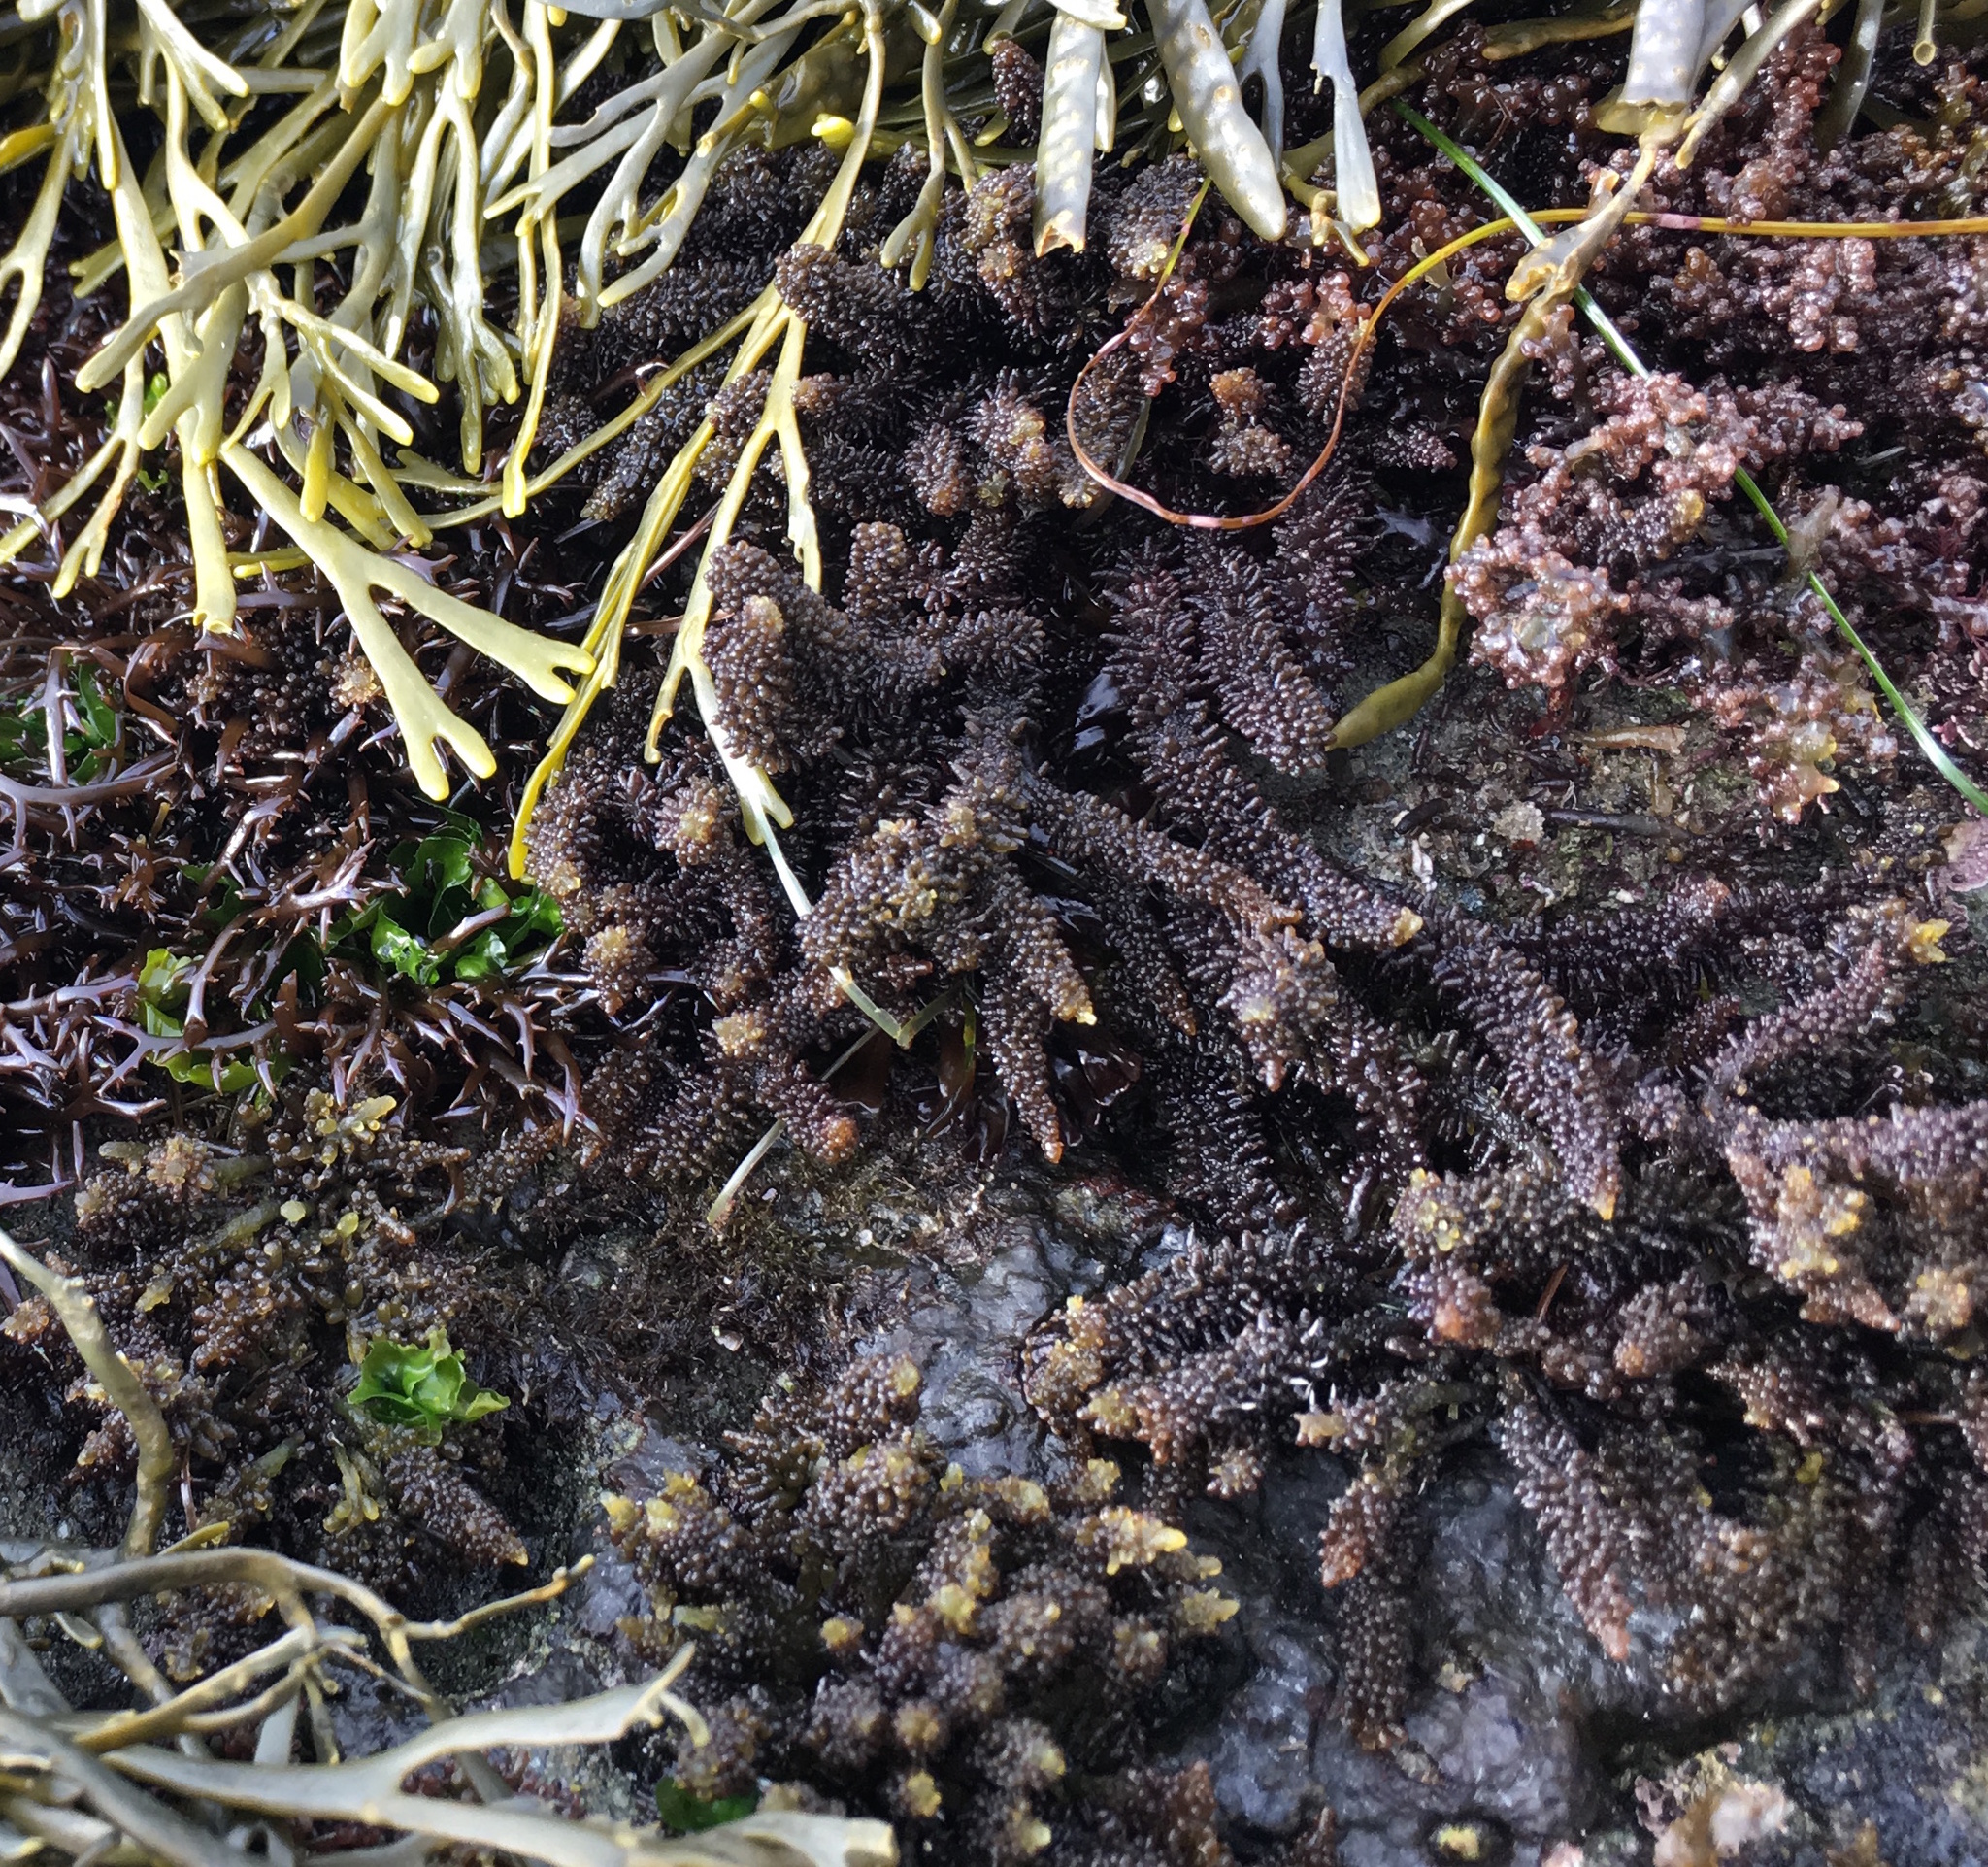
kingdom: Plantae
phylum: Rhodophyta
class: Florideophyceae
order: Ceramiales
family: Rhodomelaceae
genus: Laurencia
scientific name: Laurencia snyderiae
